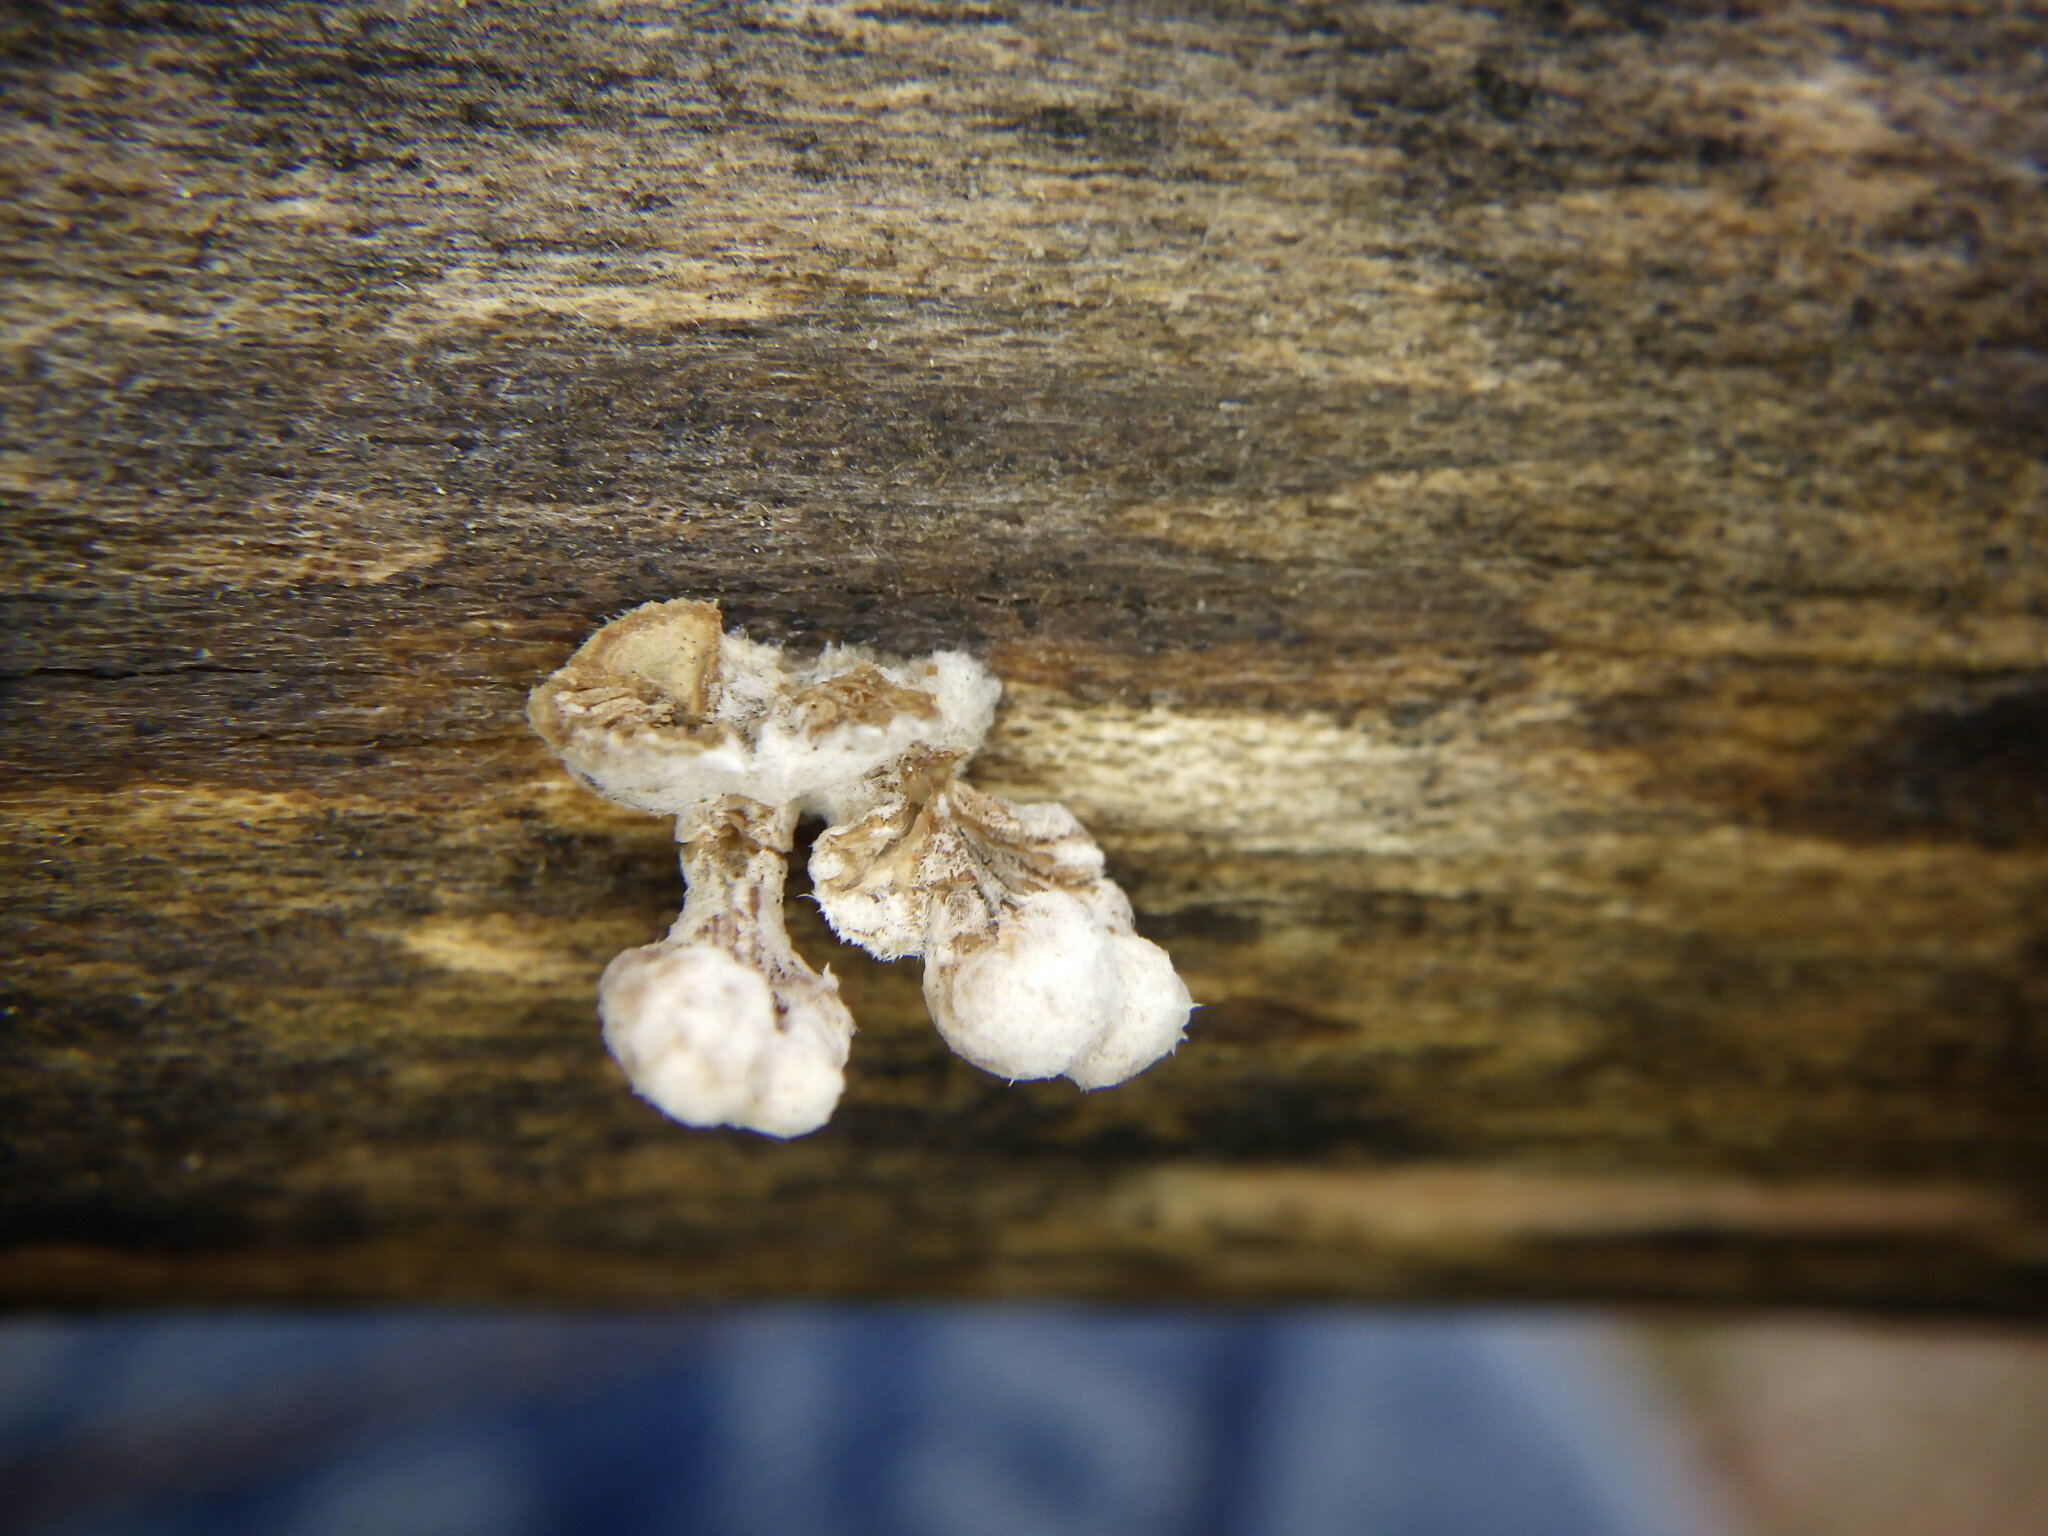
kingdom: Fungi
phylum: Basidiomycota
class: Agaricomycetes
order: Agaricales
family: Schizophyllaceae
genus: Schizophyllum
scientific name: Schizophyllum commune
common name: Common porecrust
